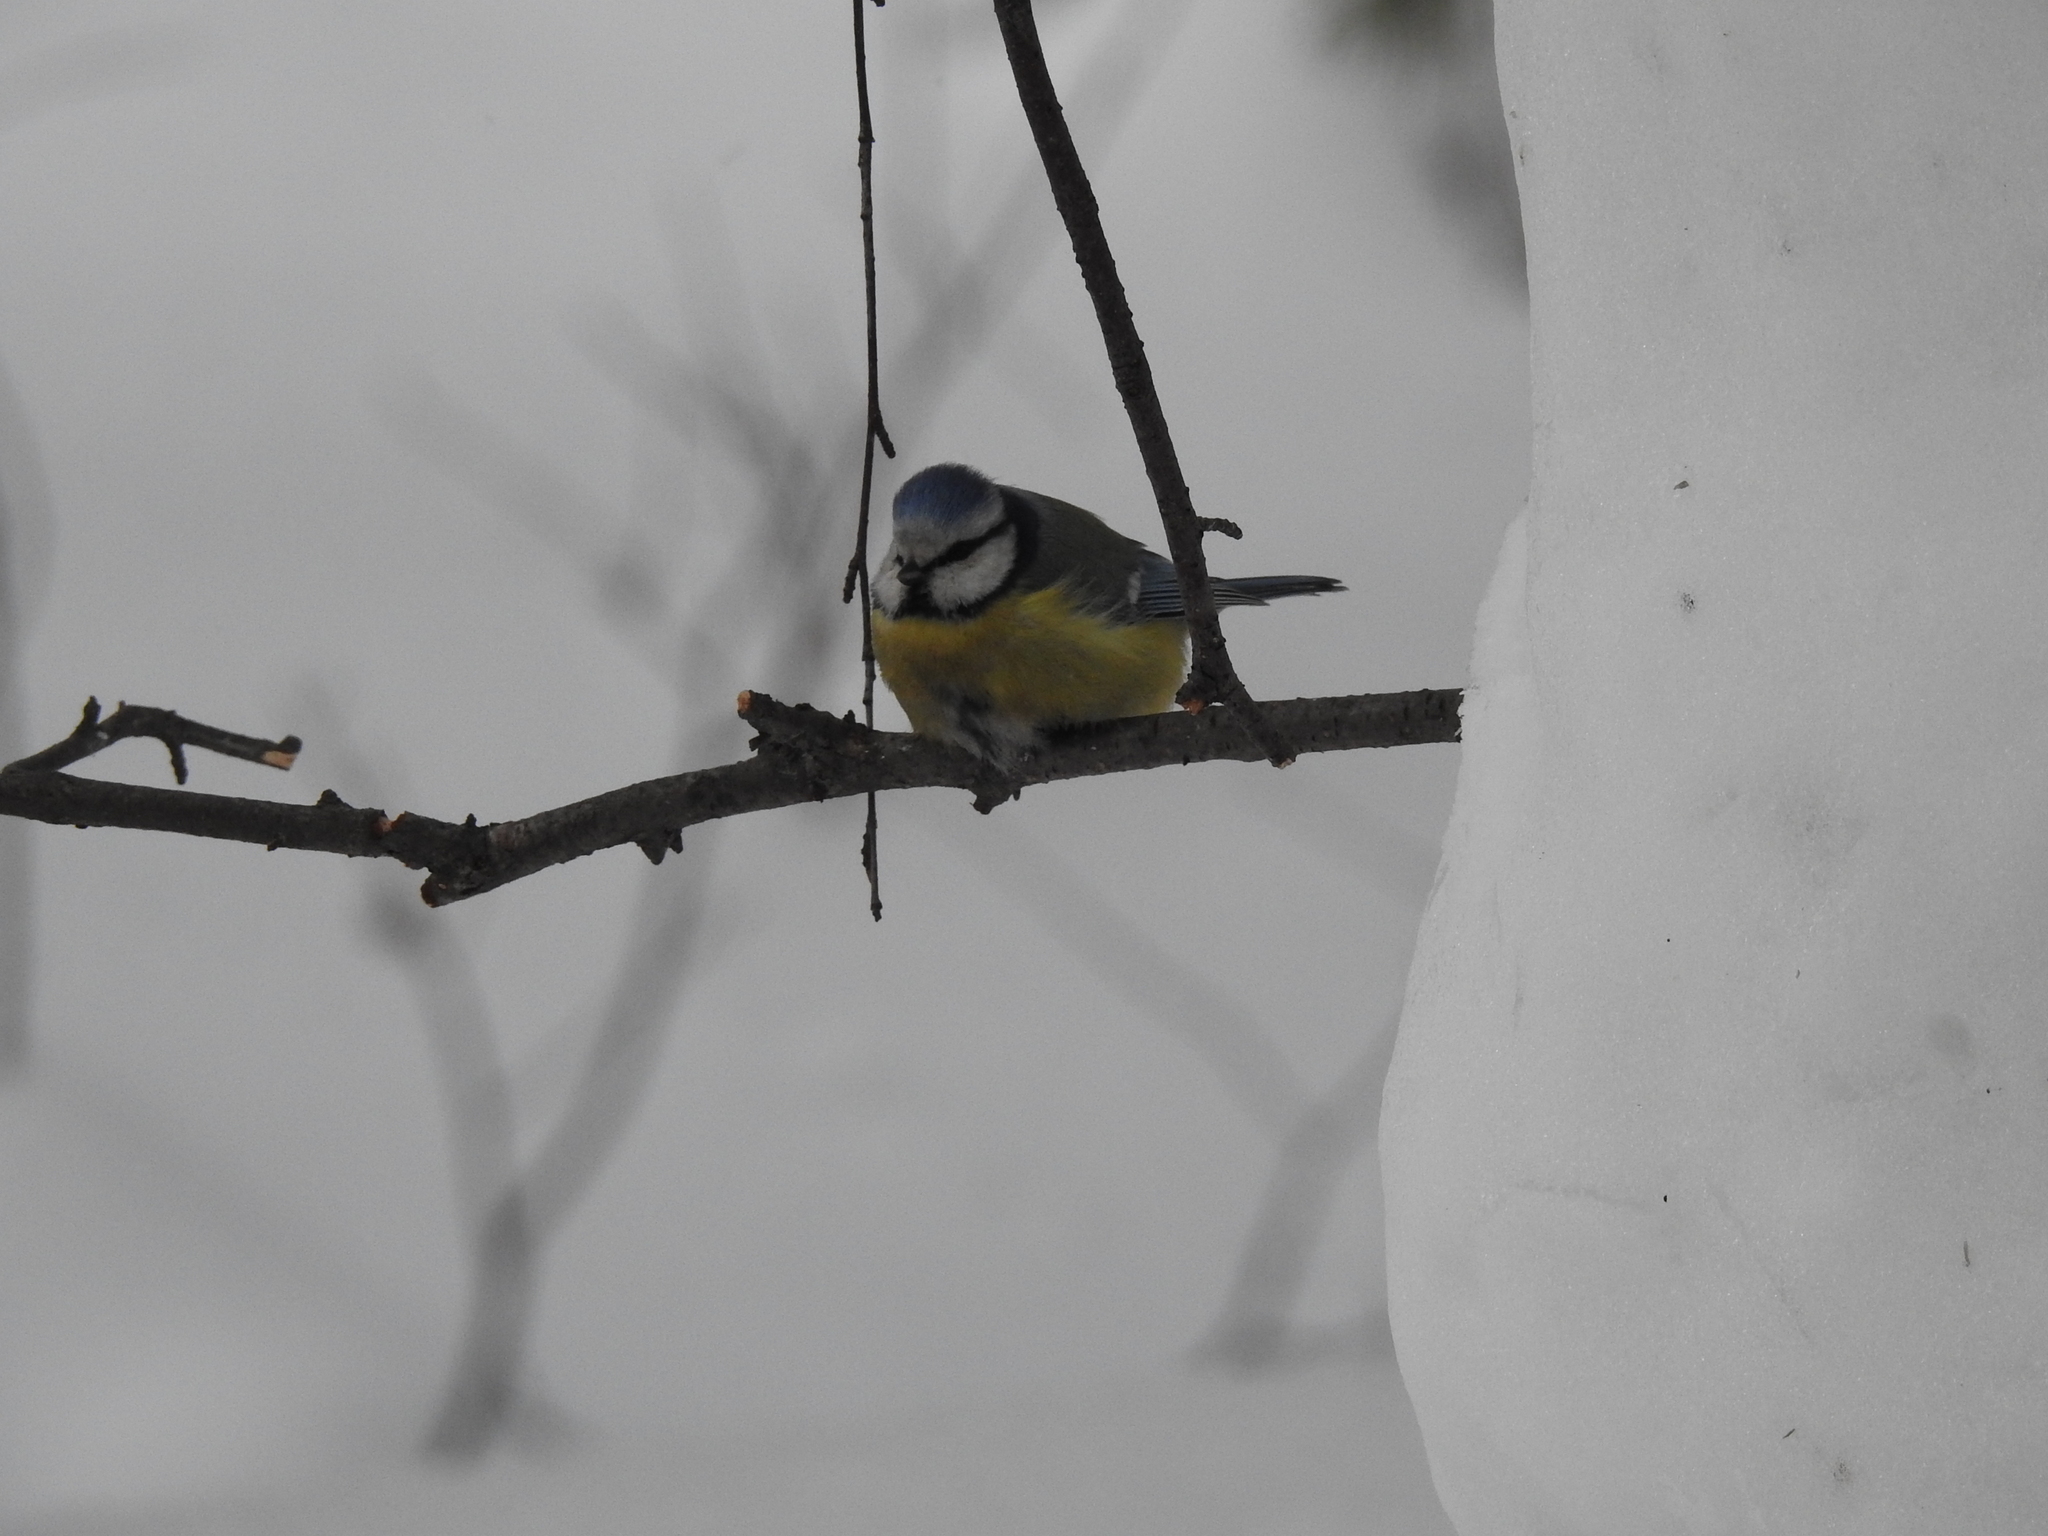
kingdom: Animalia
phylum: Chordata
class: Aves
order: Passeriformes
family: Paridae
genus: Cyanistes
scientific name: Cyanistes caeruleus
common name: Eurasian blue tit
